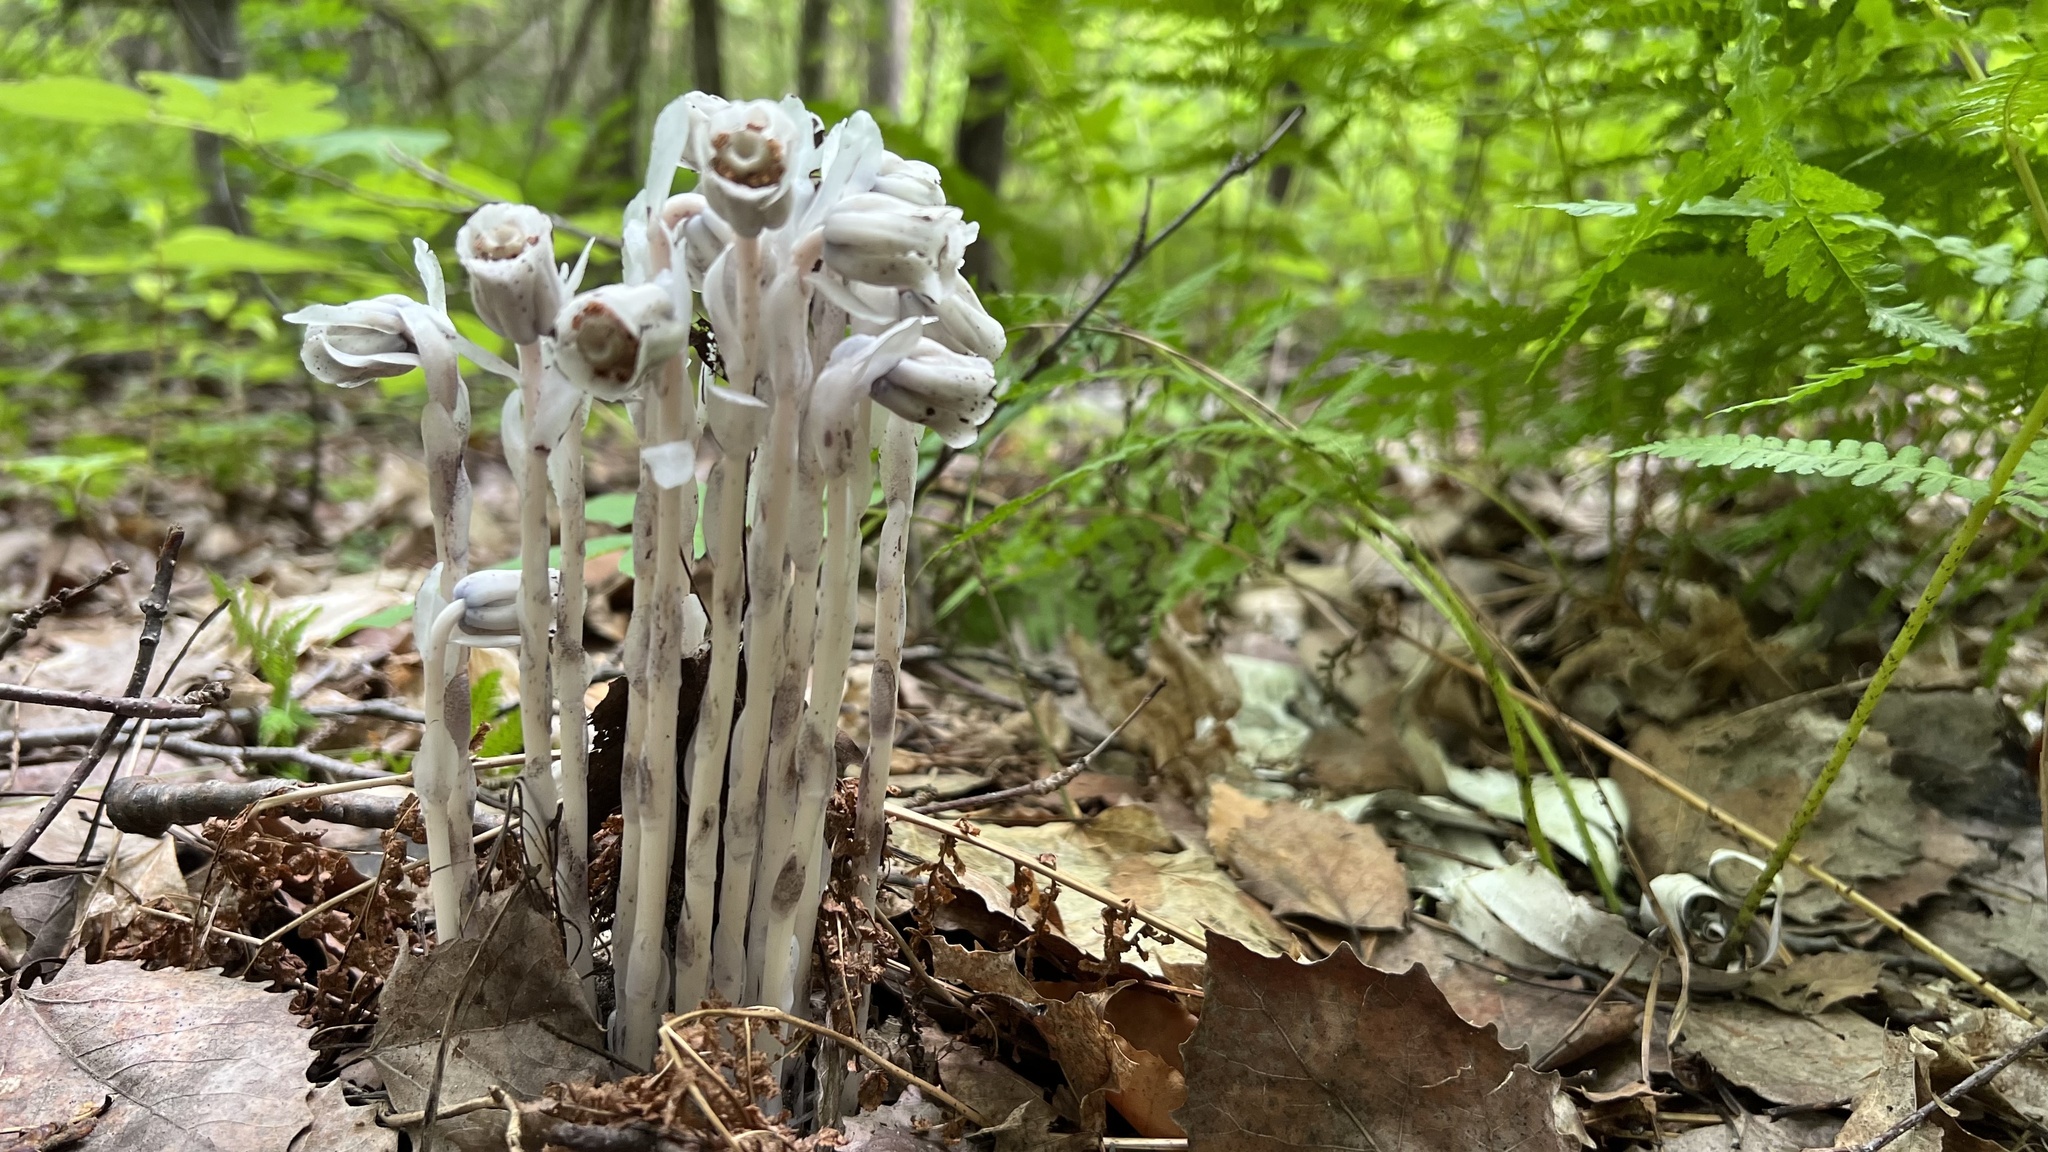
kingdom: Plantae
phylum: Tracheophyta
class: Magnoliopsida
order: Ericales
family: Ericaceae
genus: Monotropa
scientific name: Monotropa uniflora
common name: Convulsion root
